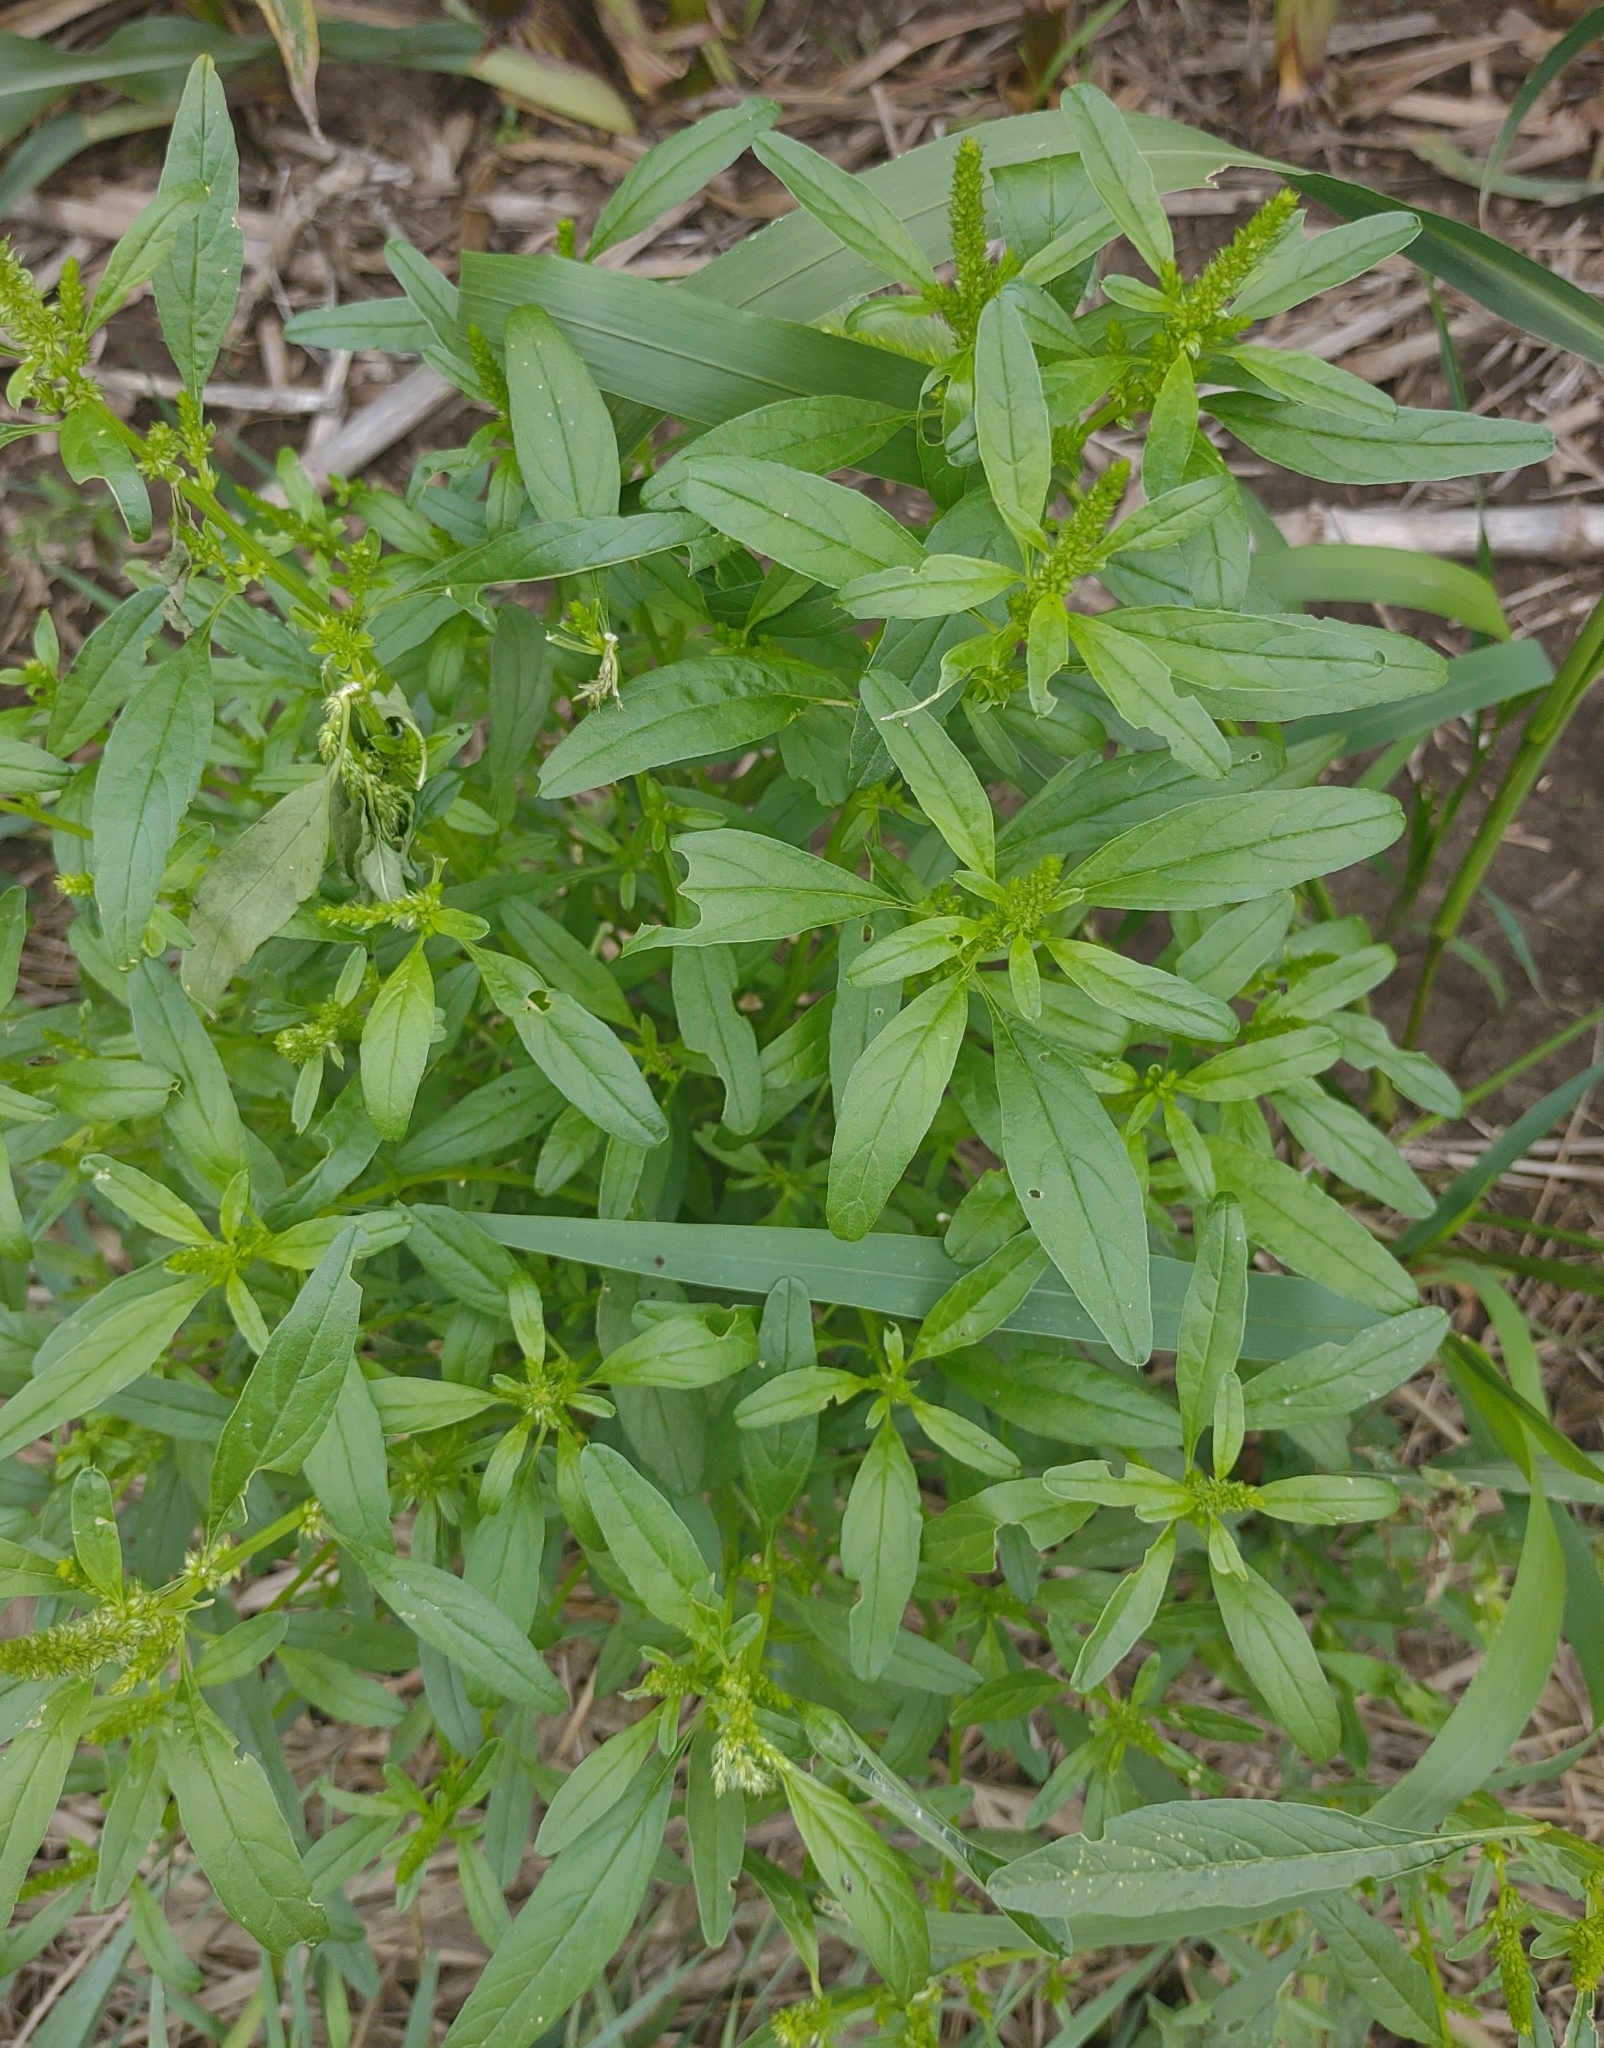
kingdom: Plantae
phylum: Tracheophyta
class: Magnoliopsida
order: Caryophyllales
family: Amaranthaceae
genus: Amaranthus
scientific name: Amaranthus
